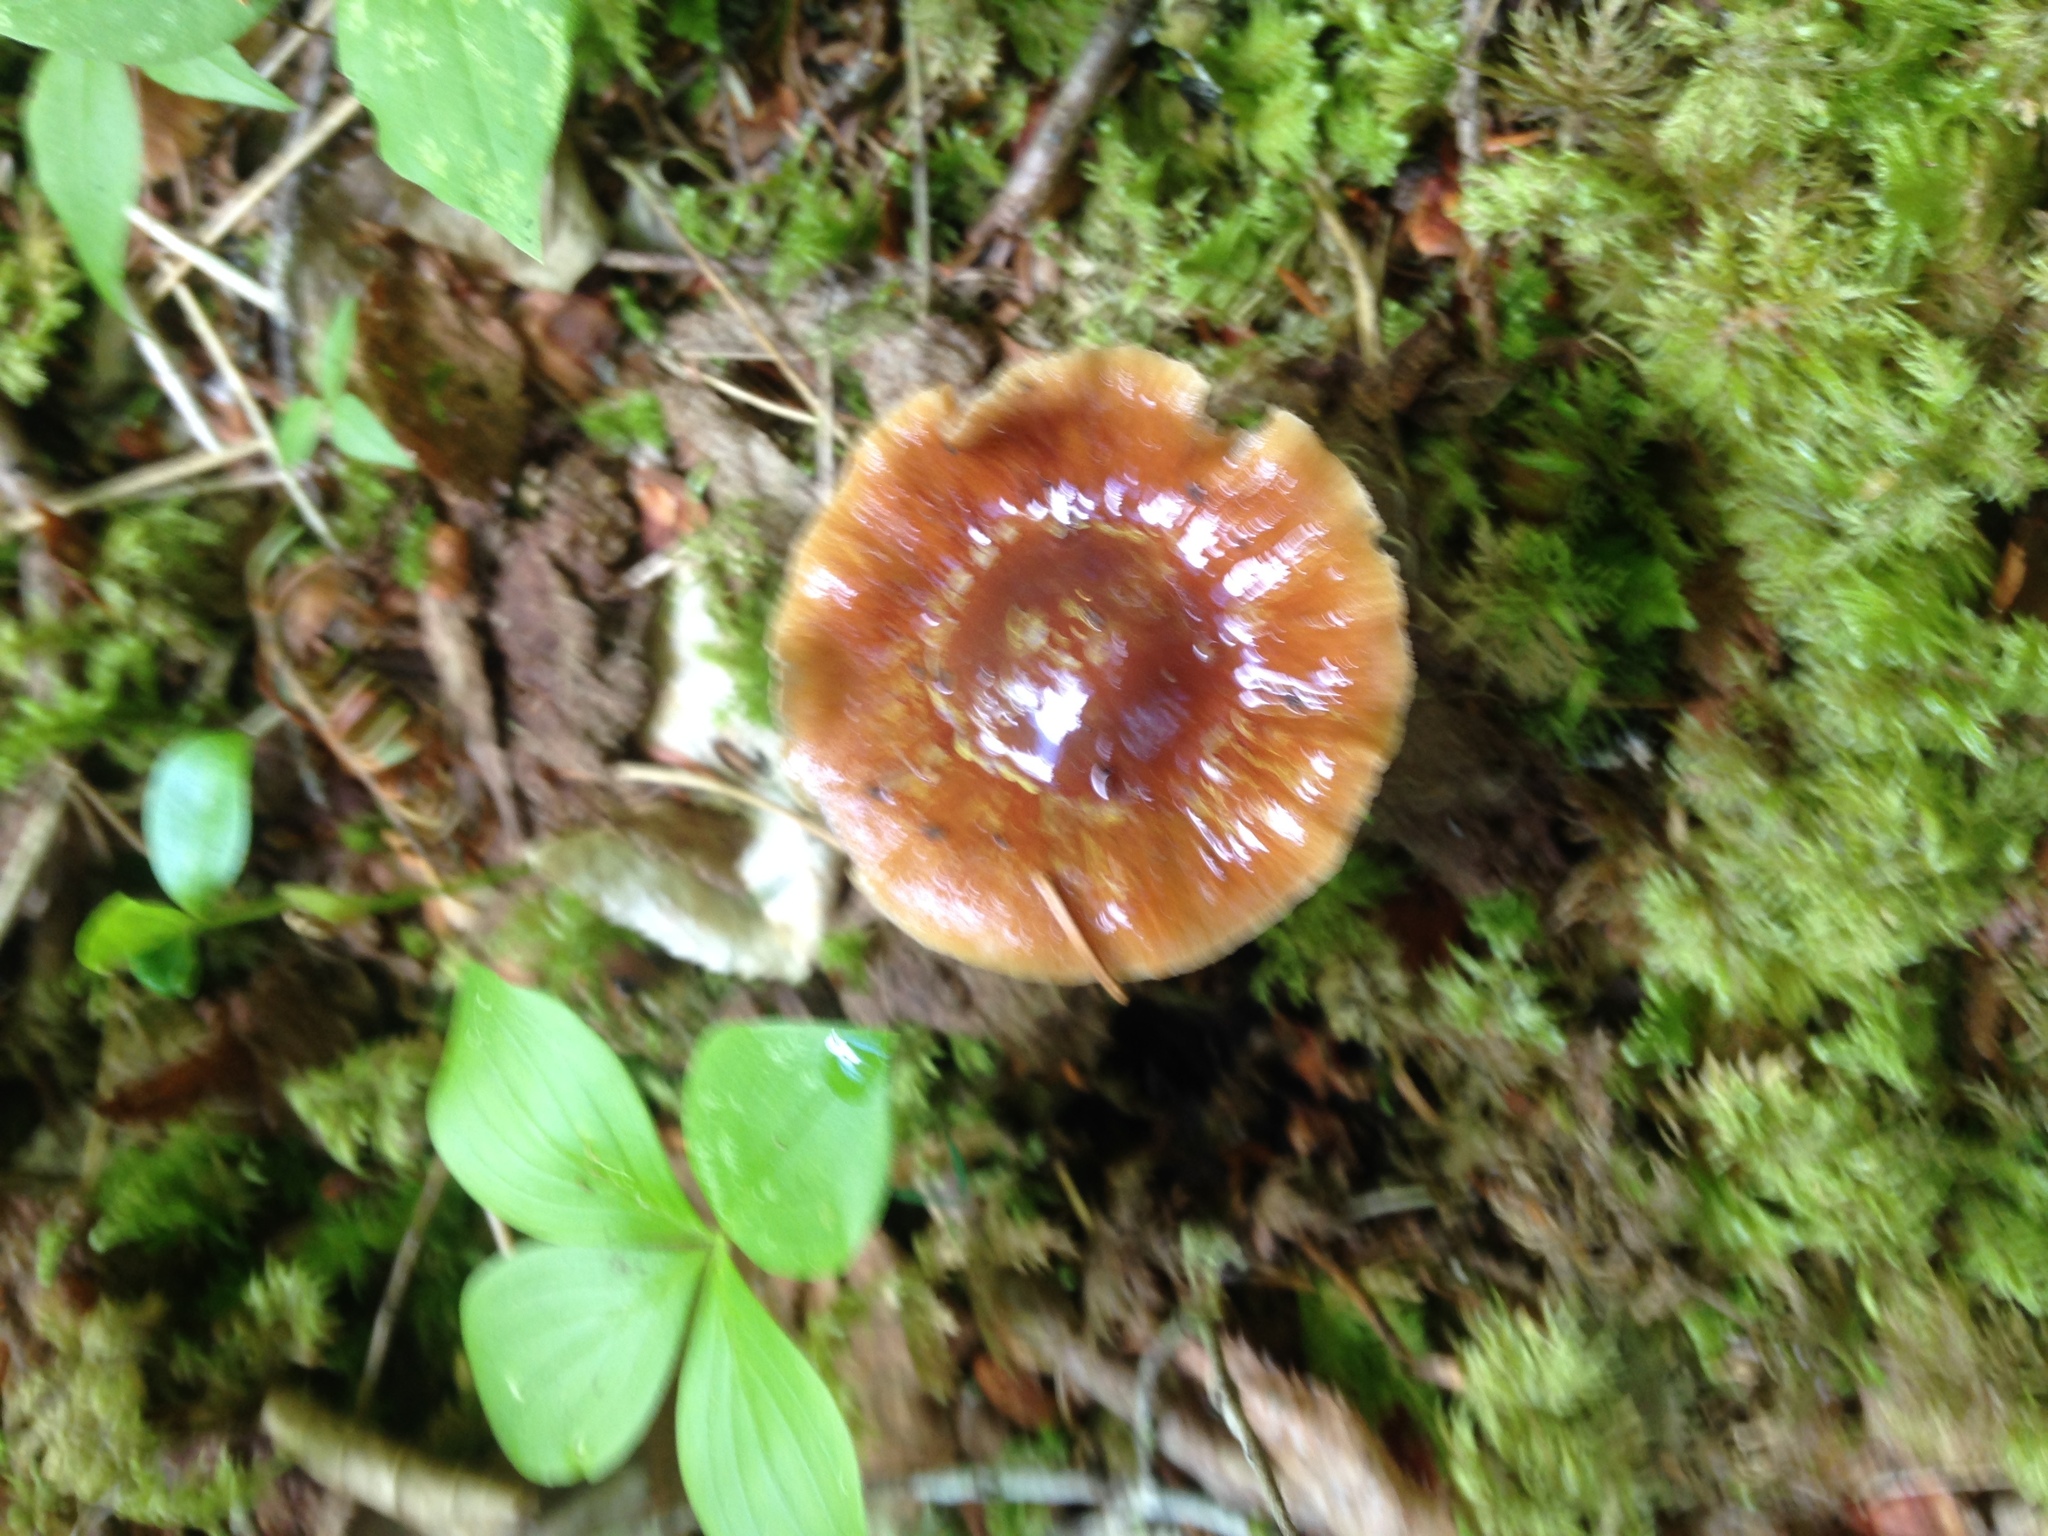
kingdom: Fungi
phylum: Basidiomycota
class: Agaricomycetes
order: Agaricales
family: Cortinariaceae
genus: Cortinarius
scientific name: Cortinarius collinitus
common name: Blue-girdled webcap
